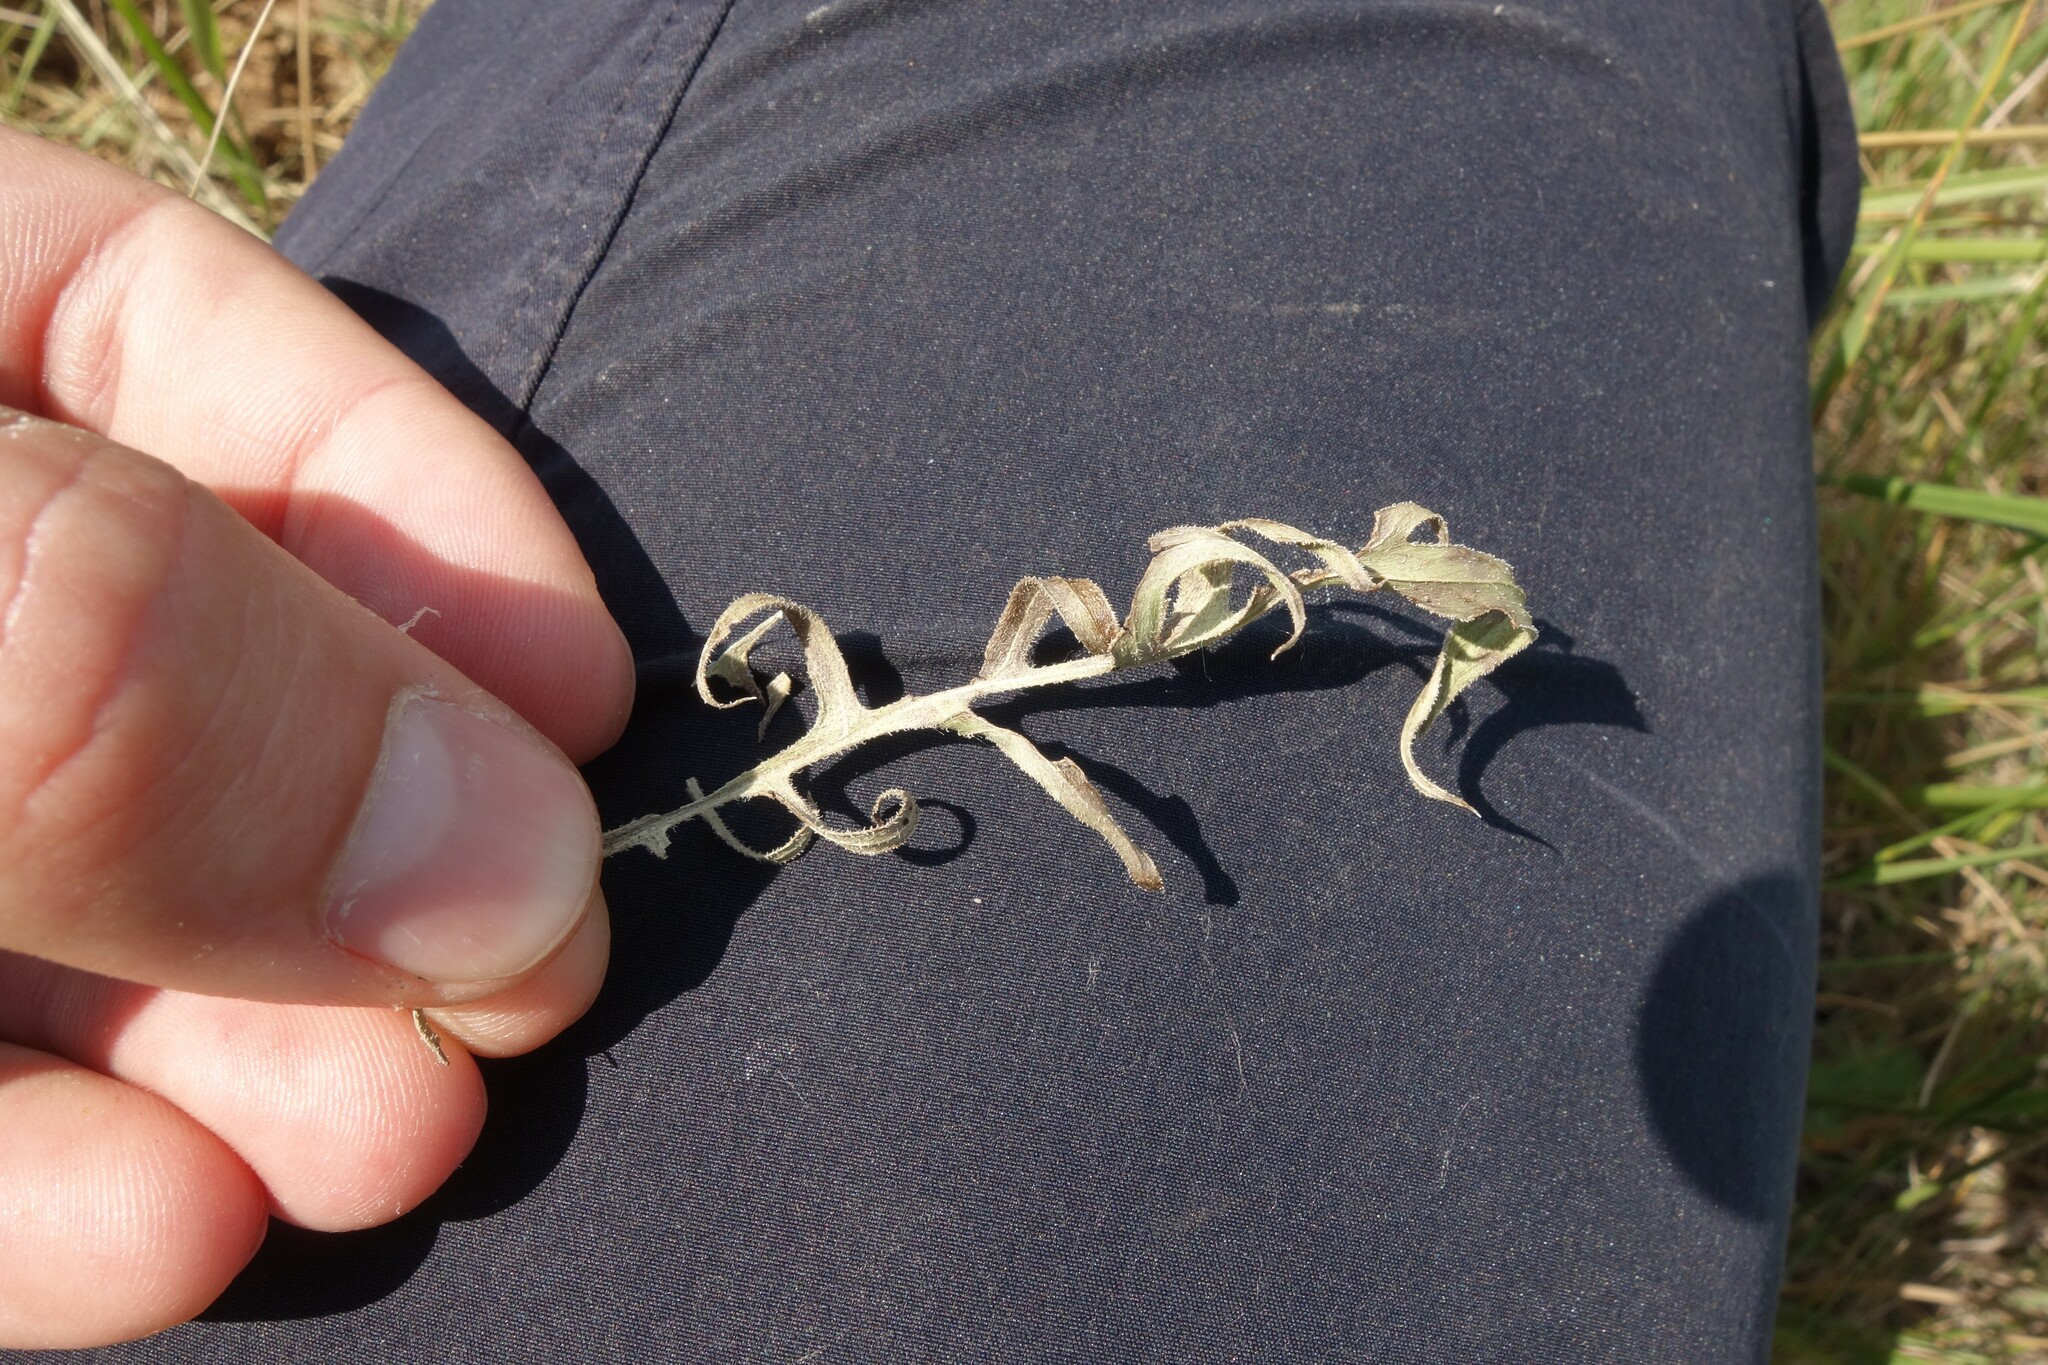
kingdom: Plantae
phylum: Tracheophyta
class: Magnoliopsida
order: Asterales
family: Asteraceae
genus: Klasea
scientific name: Klasea radiata
